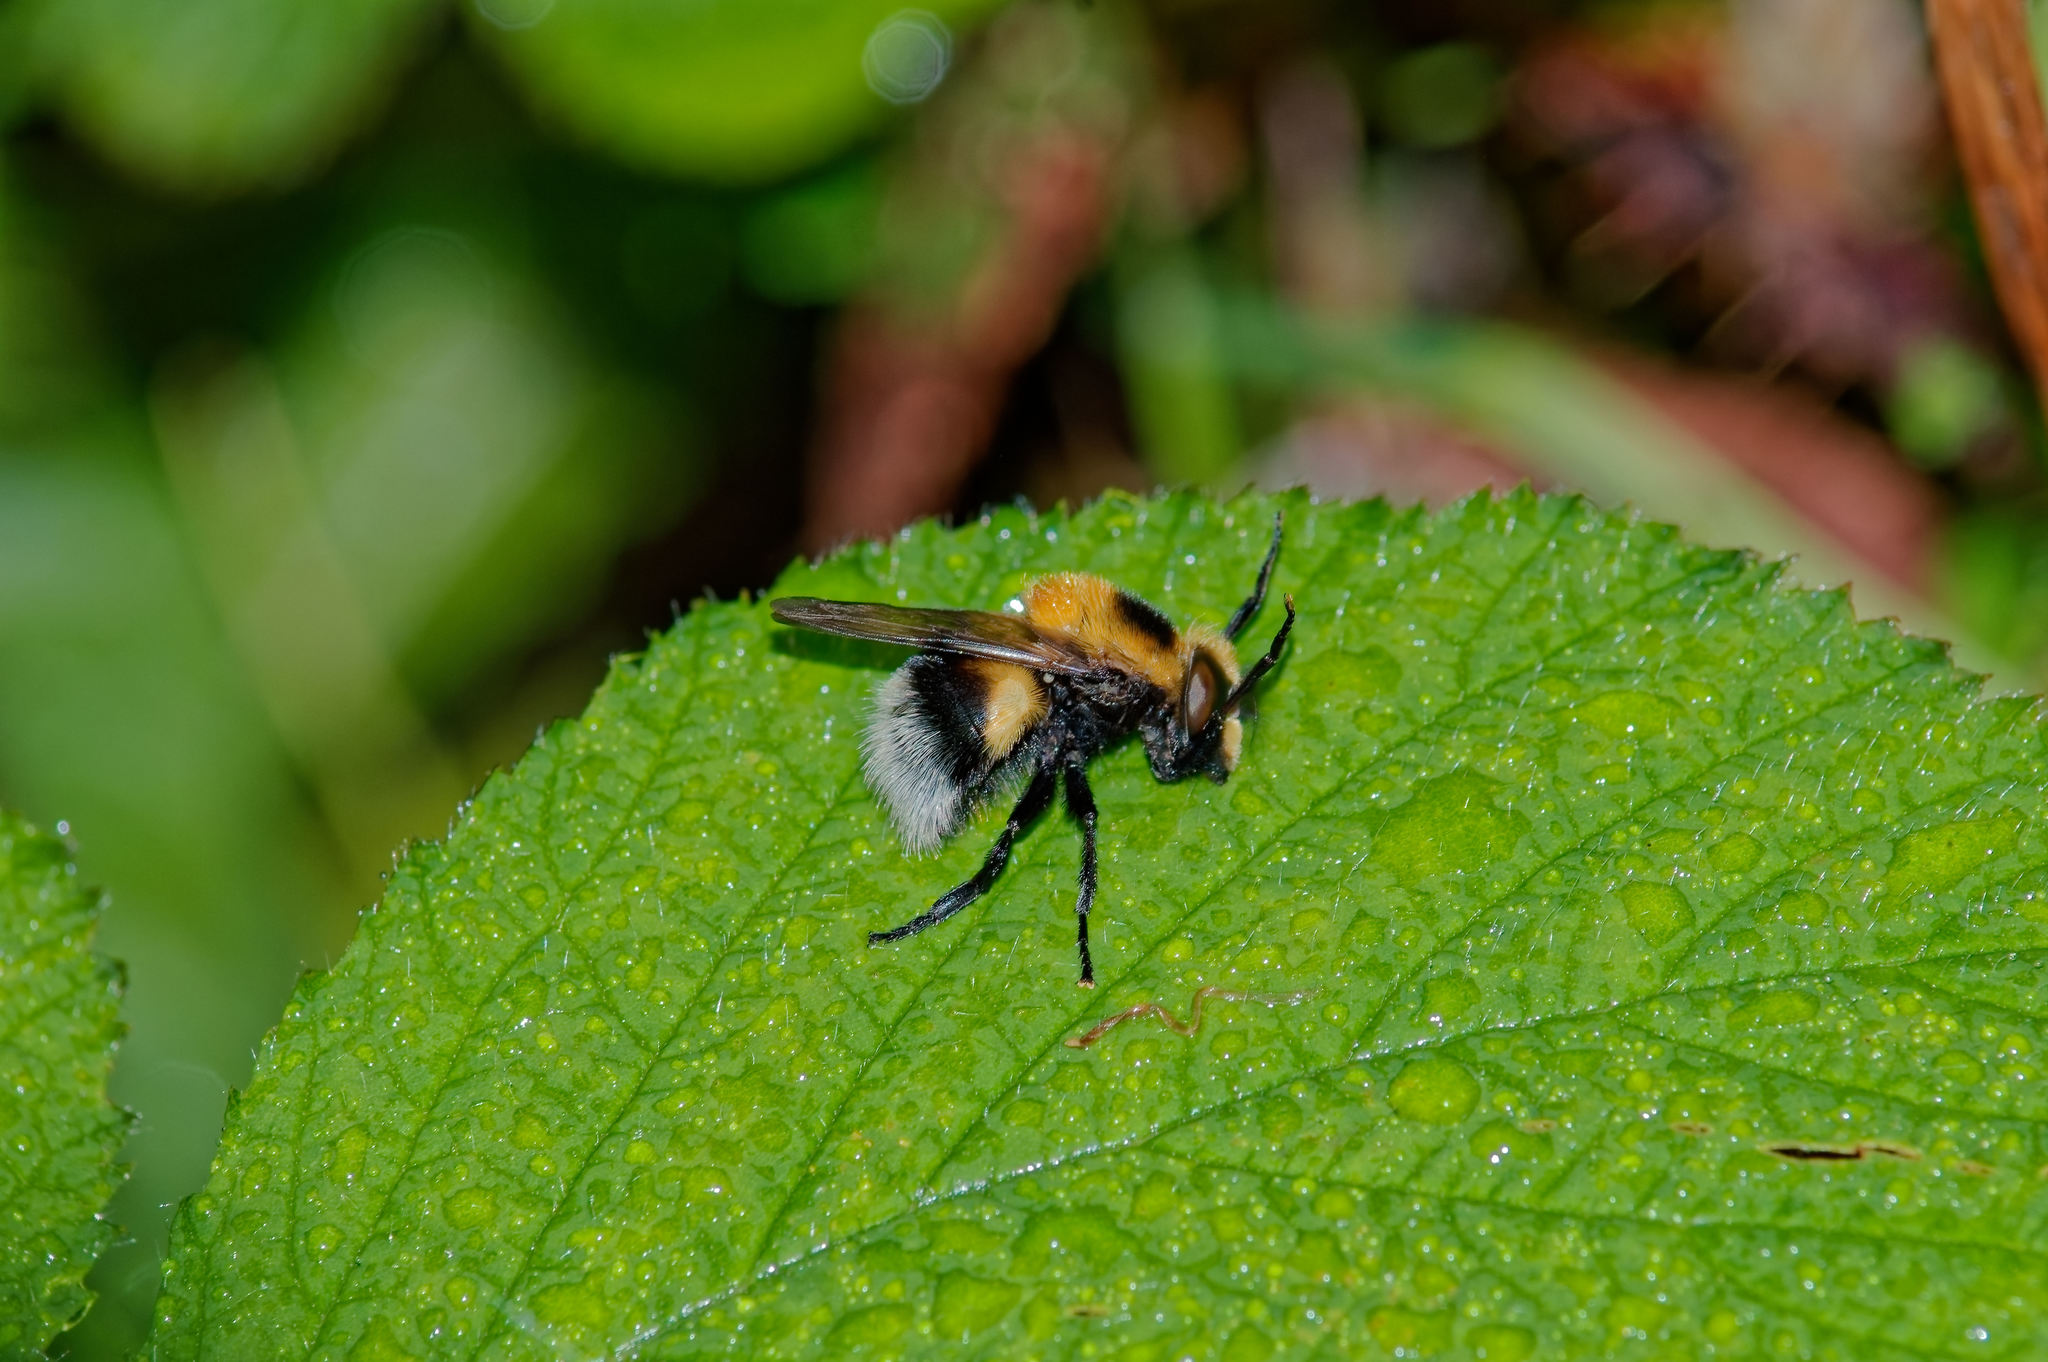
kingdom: Animalia
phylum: Arthropoda
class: Insecta
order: Diptera
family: Syrphidae
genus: Volucella
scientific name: Volucella bombylans
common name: Bumble bee hover fly
